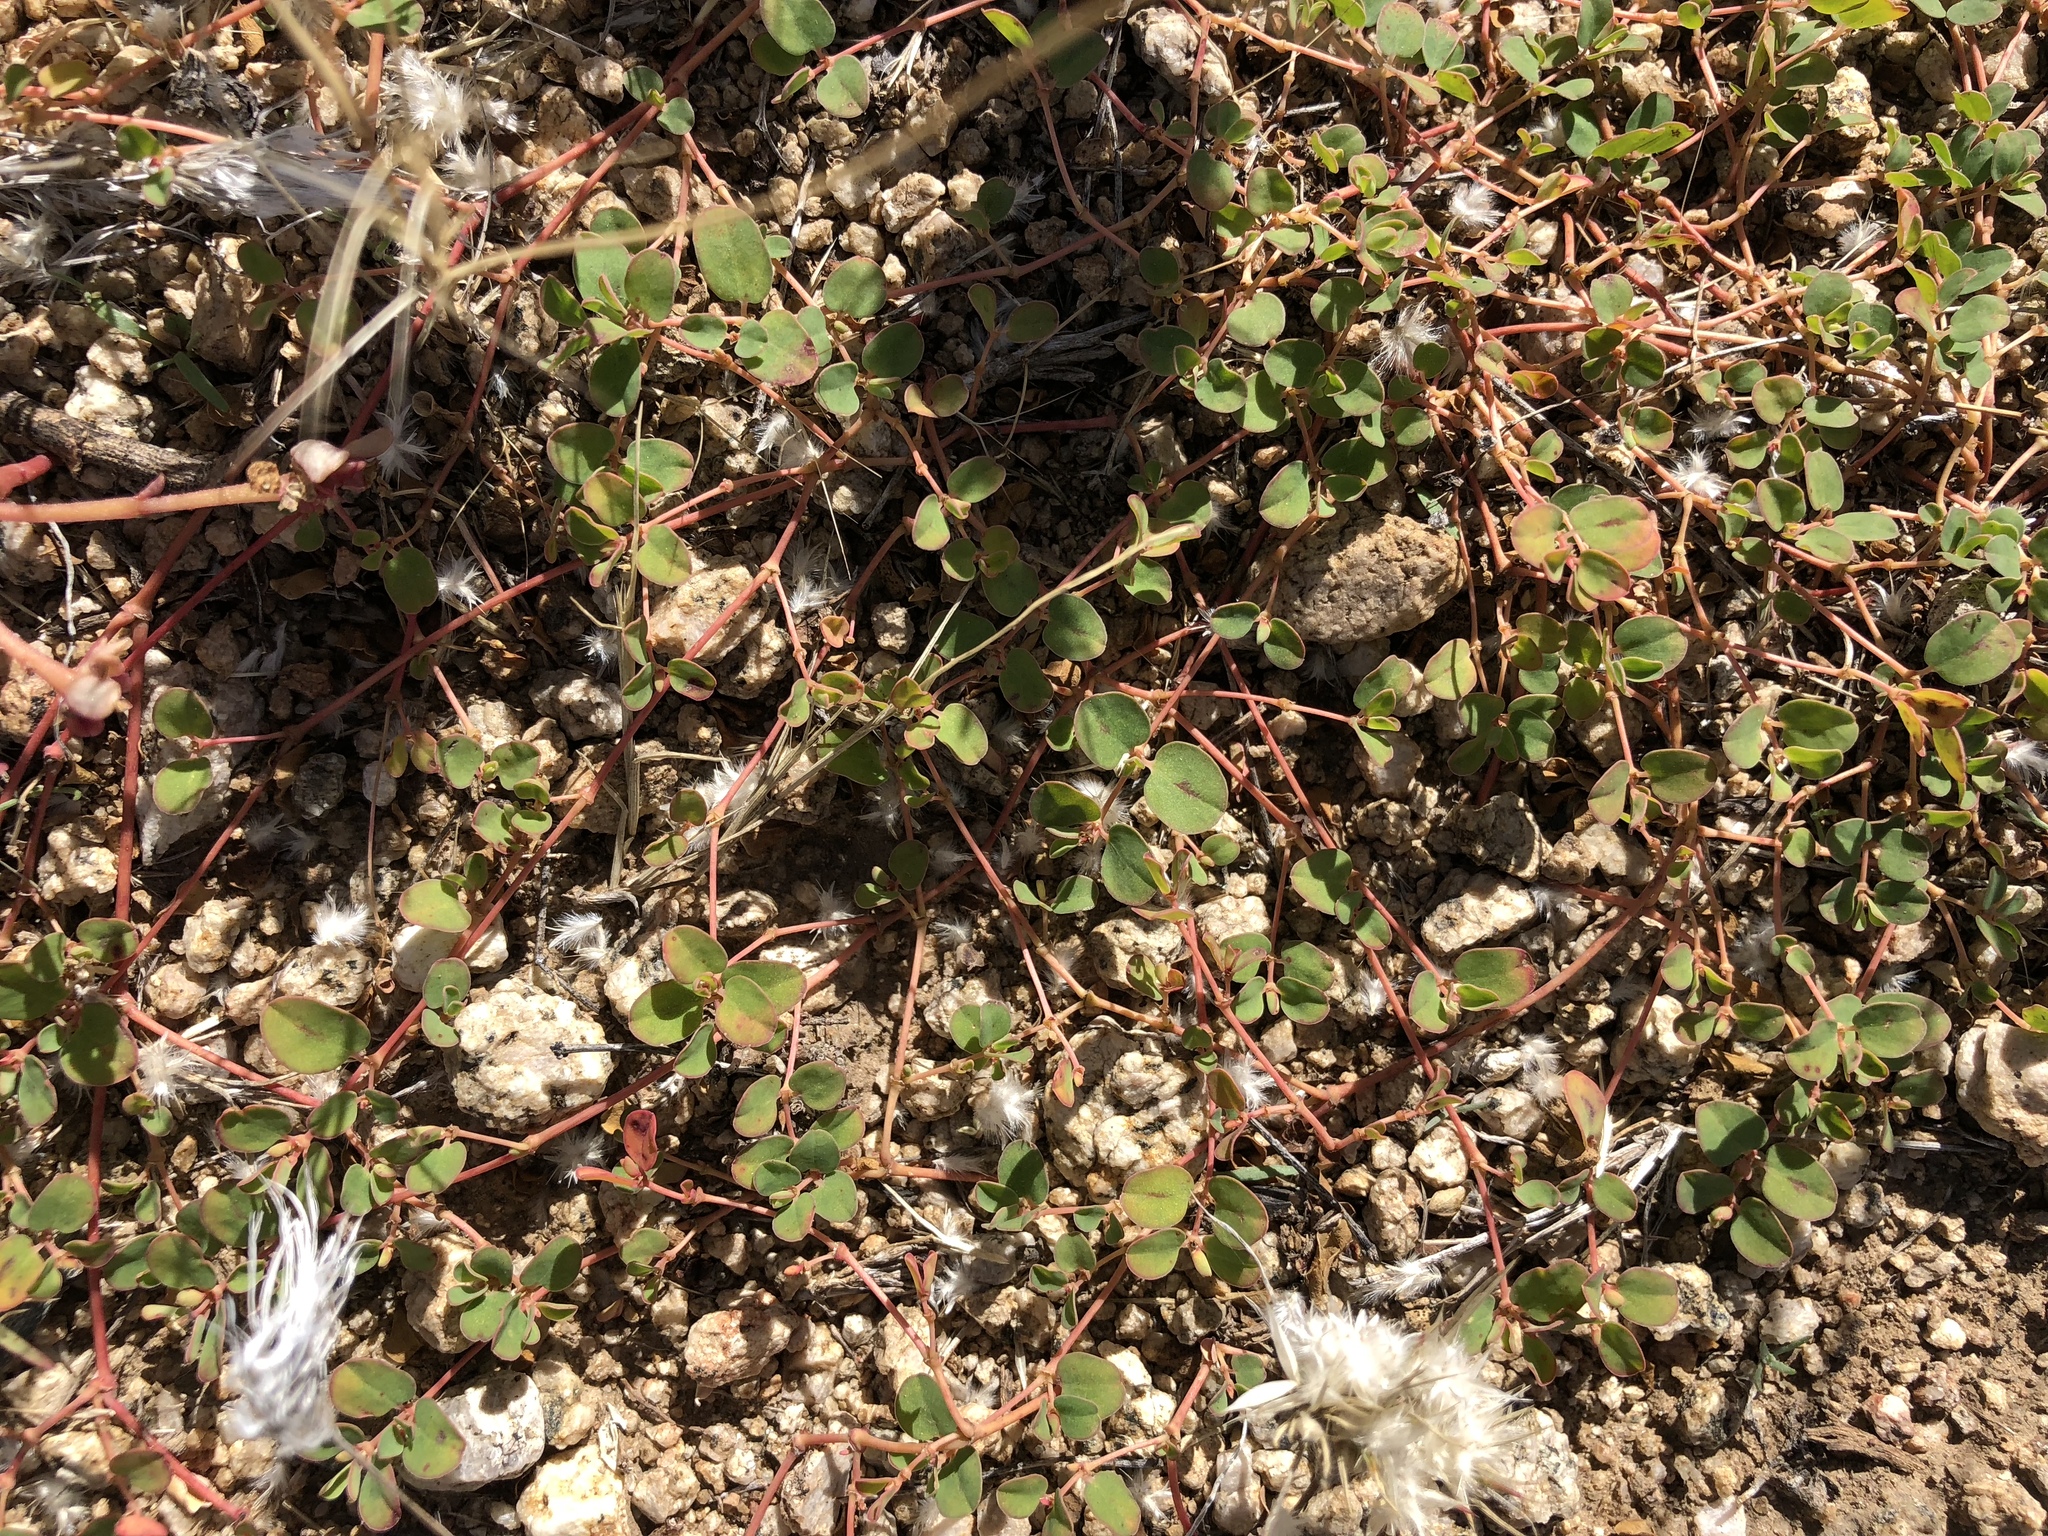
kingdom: Plantae
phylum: Tracheophyta
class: Magnoliopsida
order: Malpighiales
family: Euphorbiaceae
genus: Euphorbia
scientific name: Euphorbia albomarginata
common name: Whitemargin sandmat
